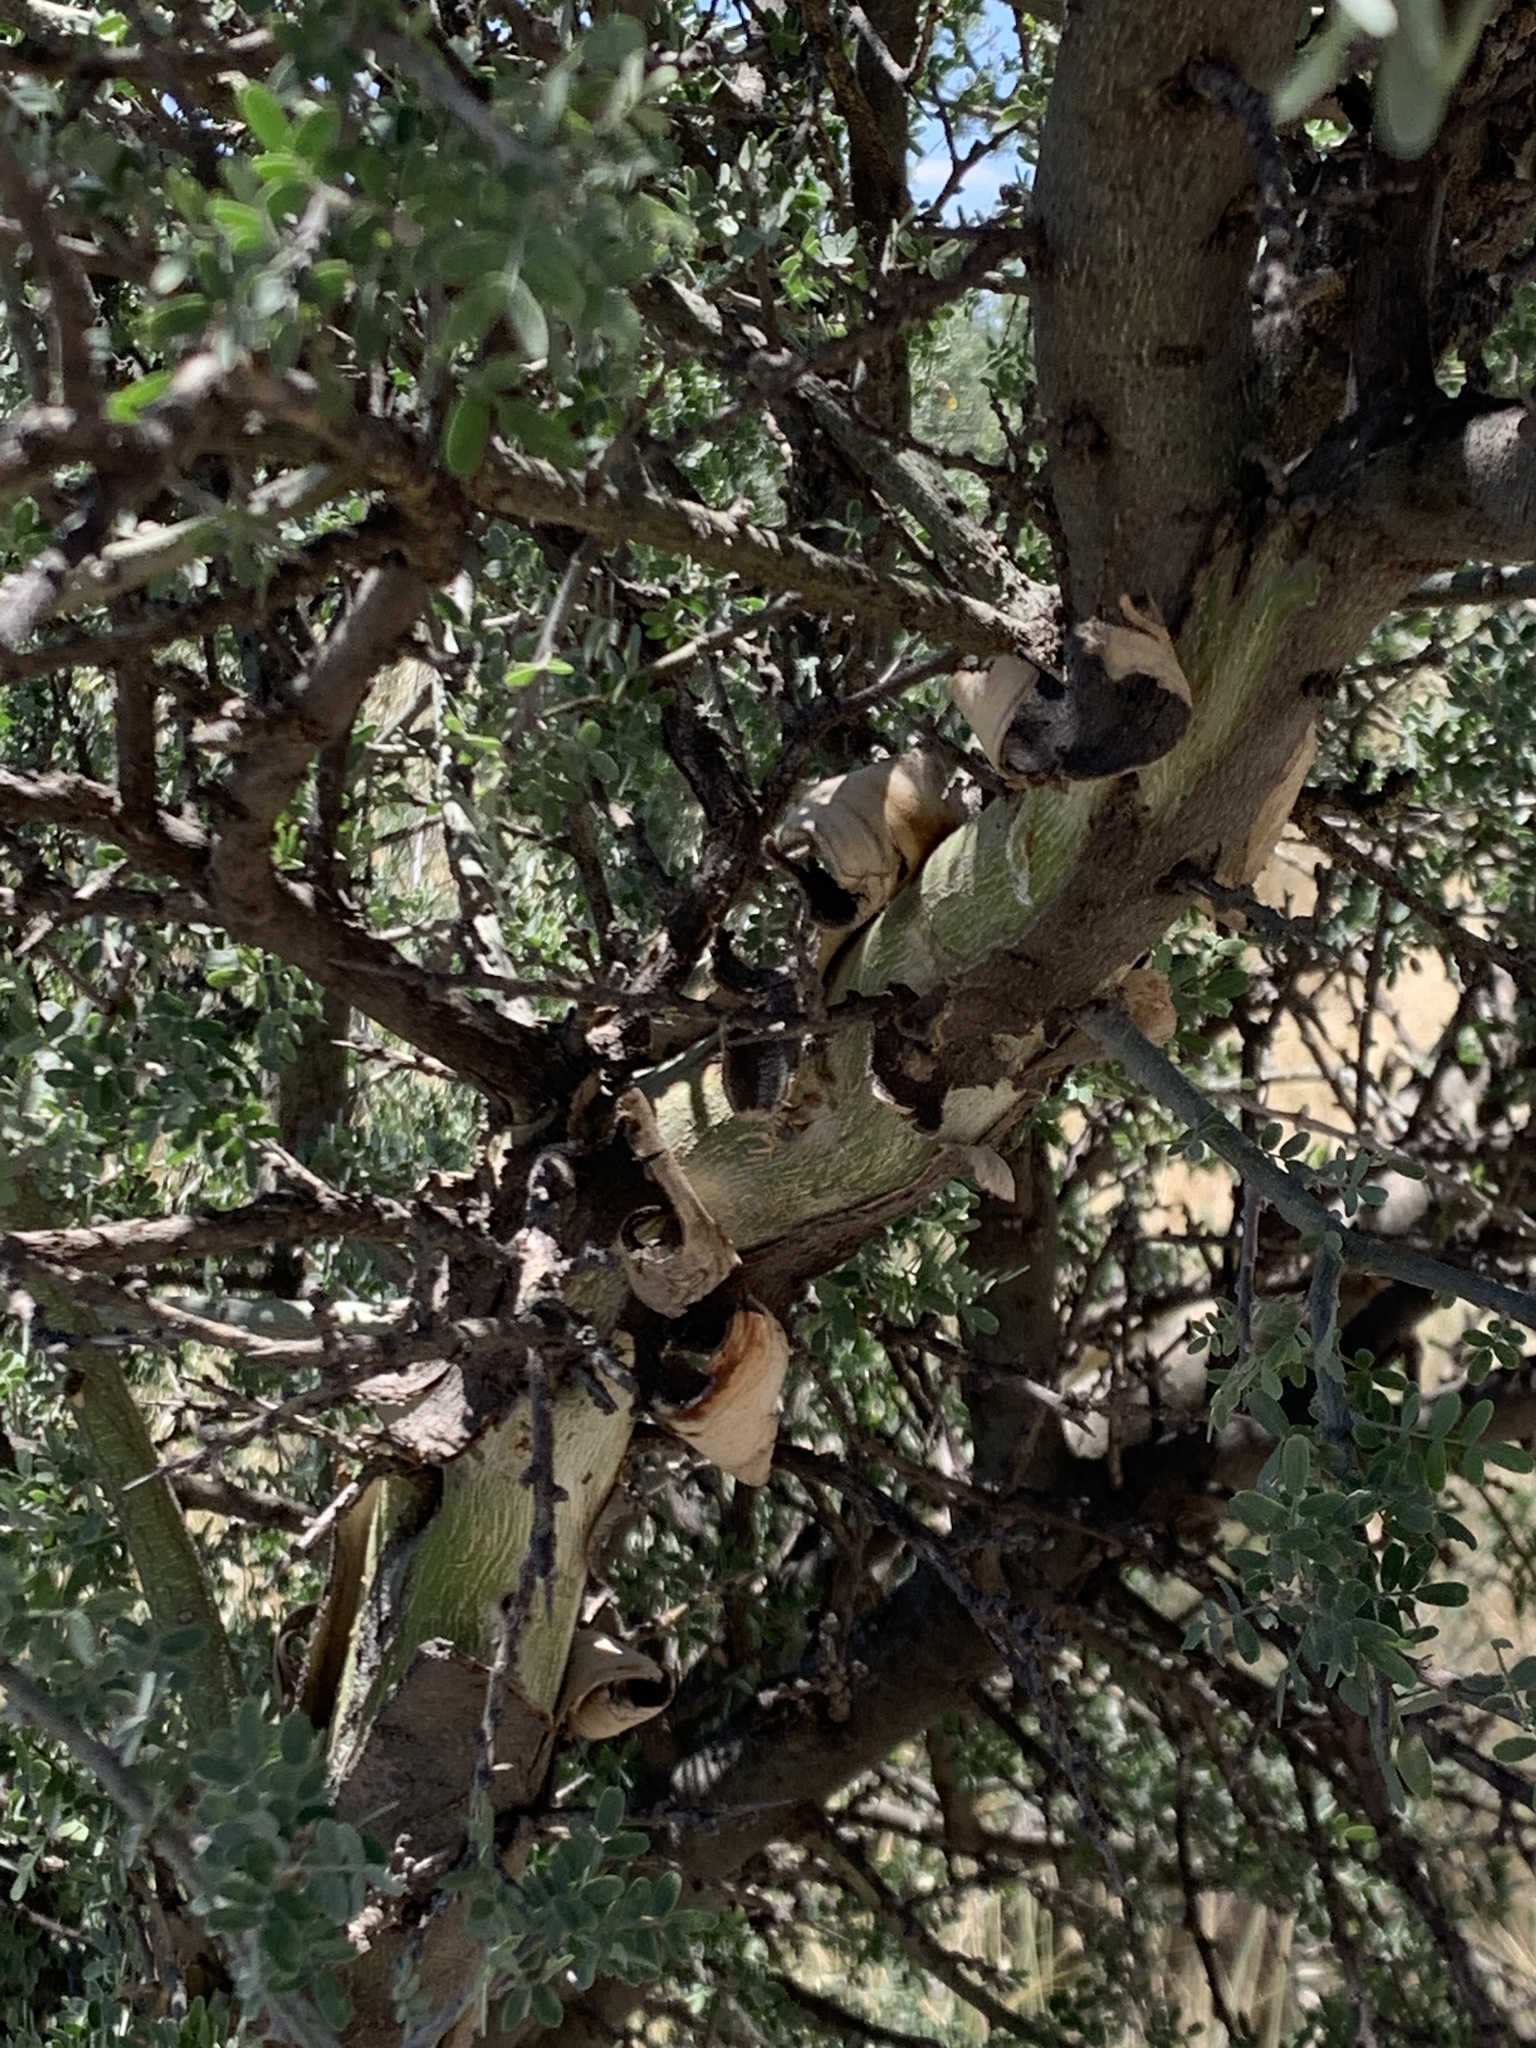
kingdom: Plantae
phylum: Tracheophyta
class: Magnoliopsida
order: Fabales
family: Fabaceae
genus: Geoffroea
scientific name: Geoffroea decorticans
